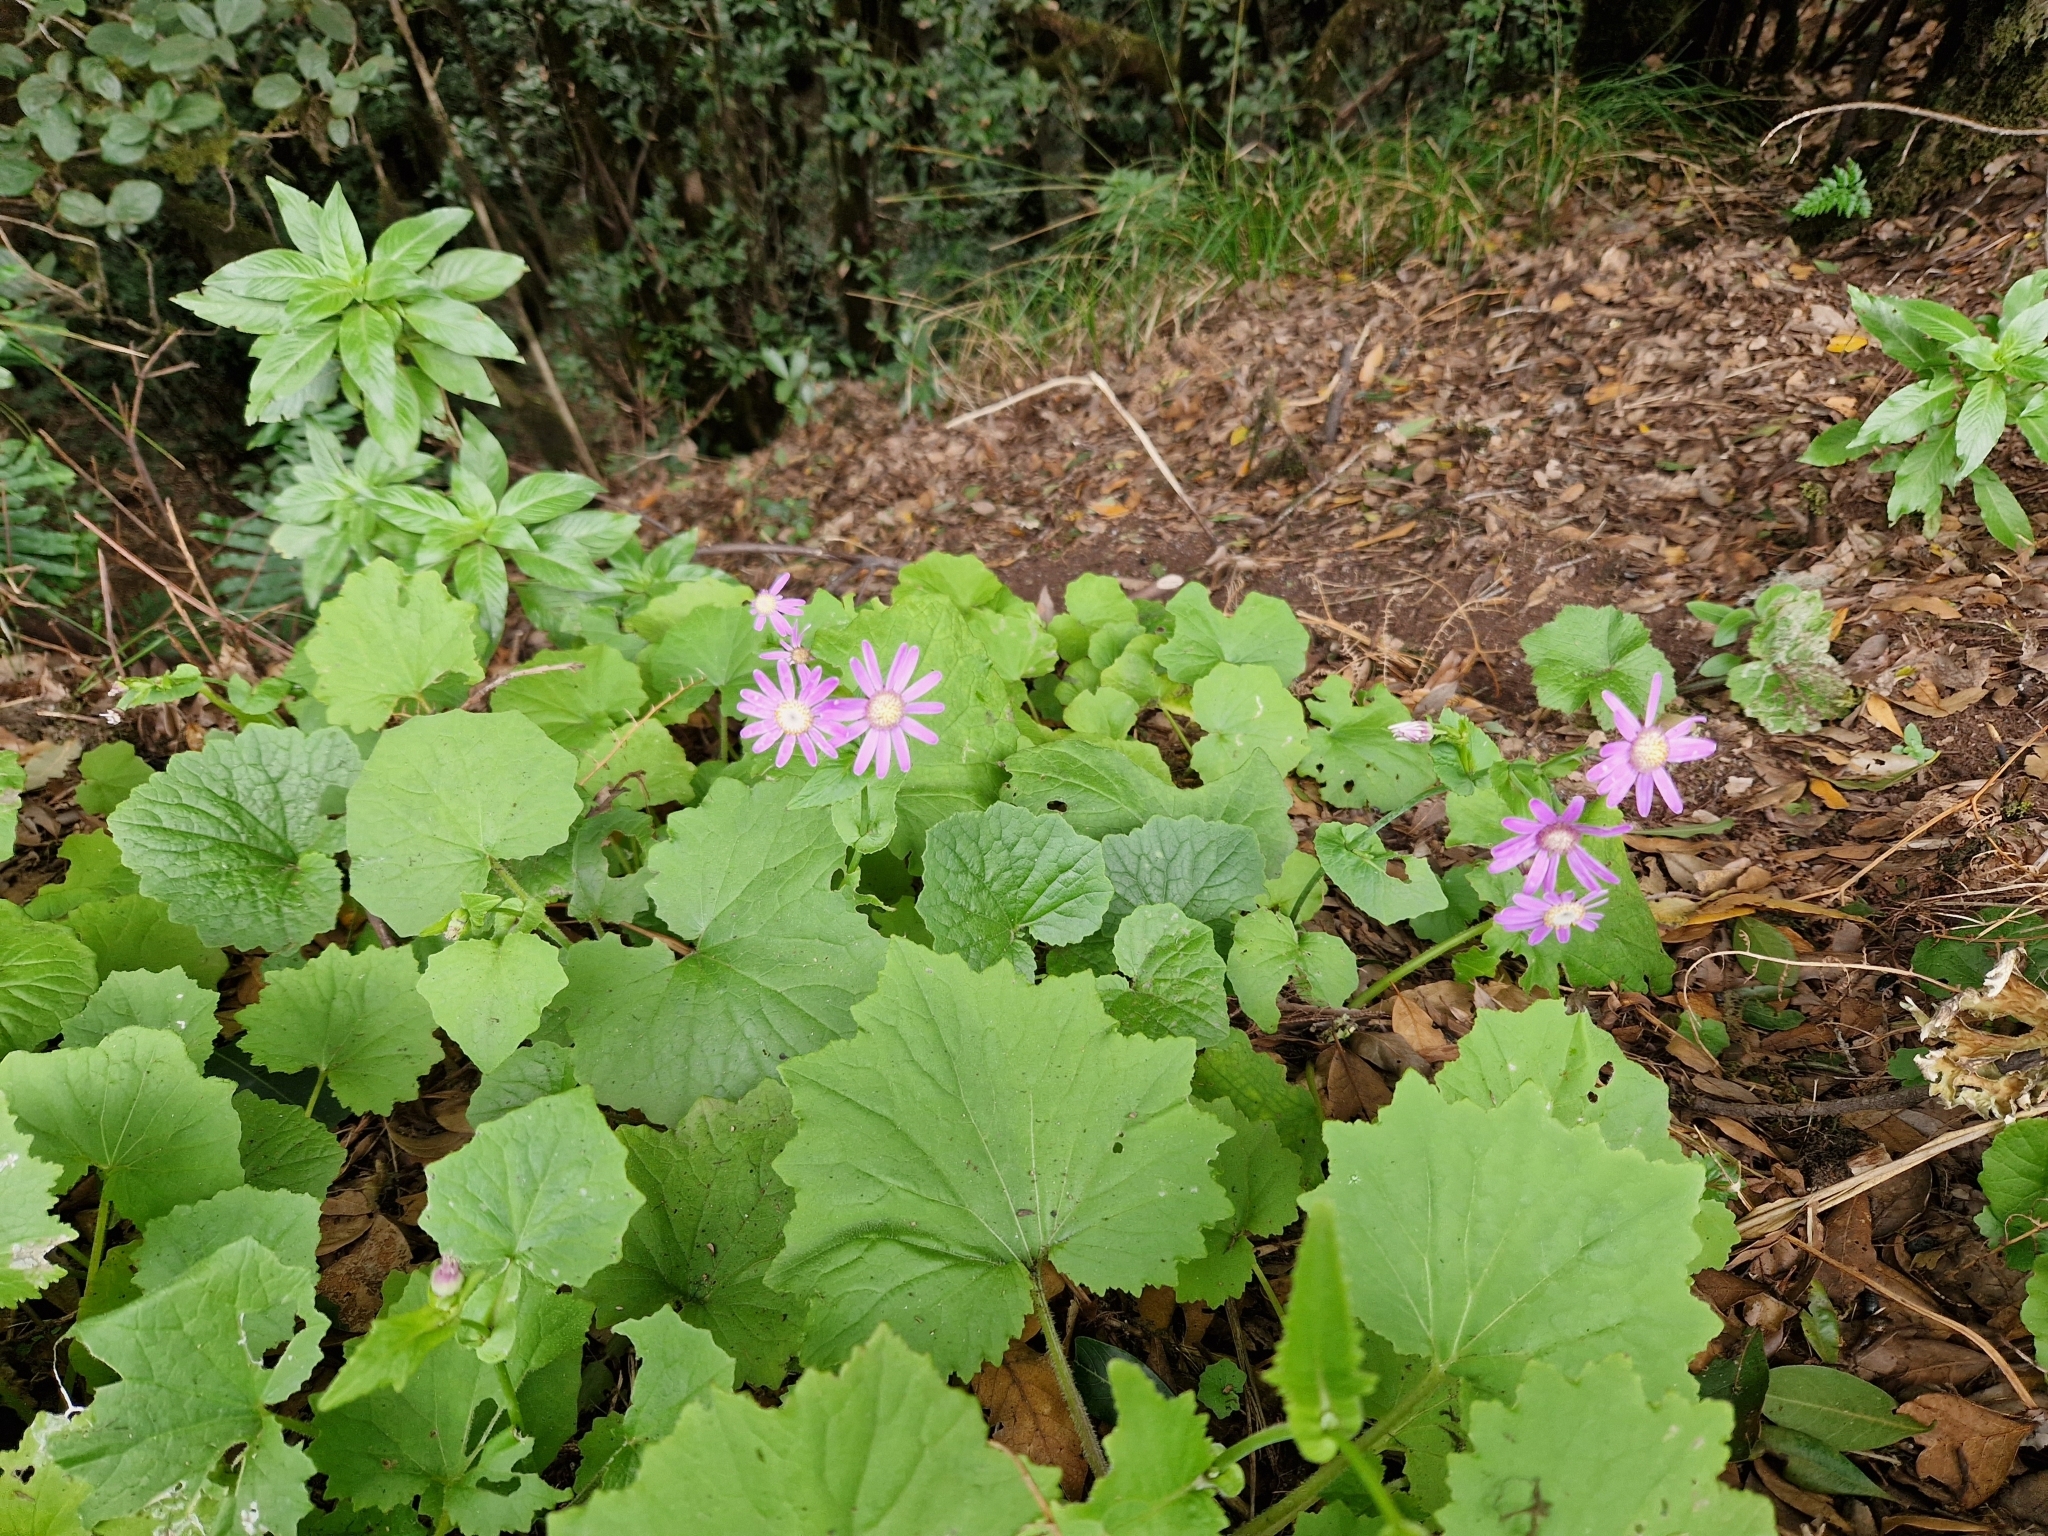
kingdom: Plantae
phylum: Tracheophyta
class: Magnoliopsida
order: Asterales
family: Asteraceae
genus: Pericallis
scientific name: Pericallis tussilaginis
